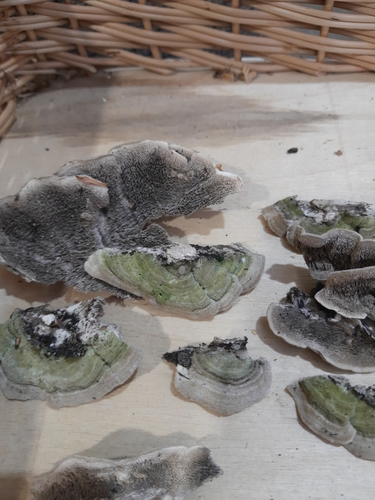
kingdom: Fungi
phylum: Basidiomycota
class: Agaricomycetes
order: Polyporales
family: Cerrenaceae
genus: Cerrena
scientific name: Cerrena unicolor
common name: Mossy maze polypore
